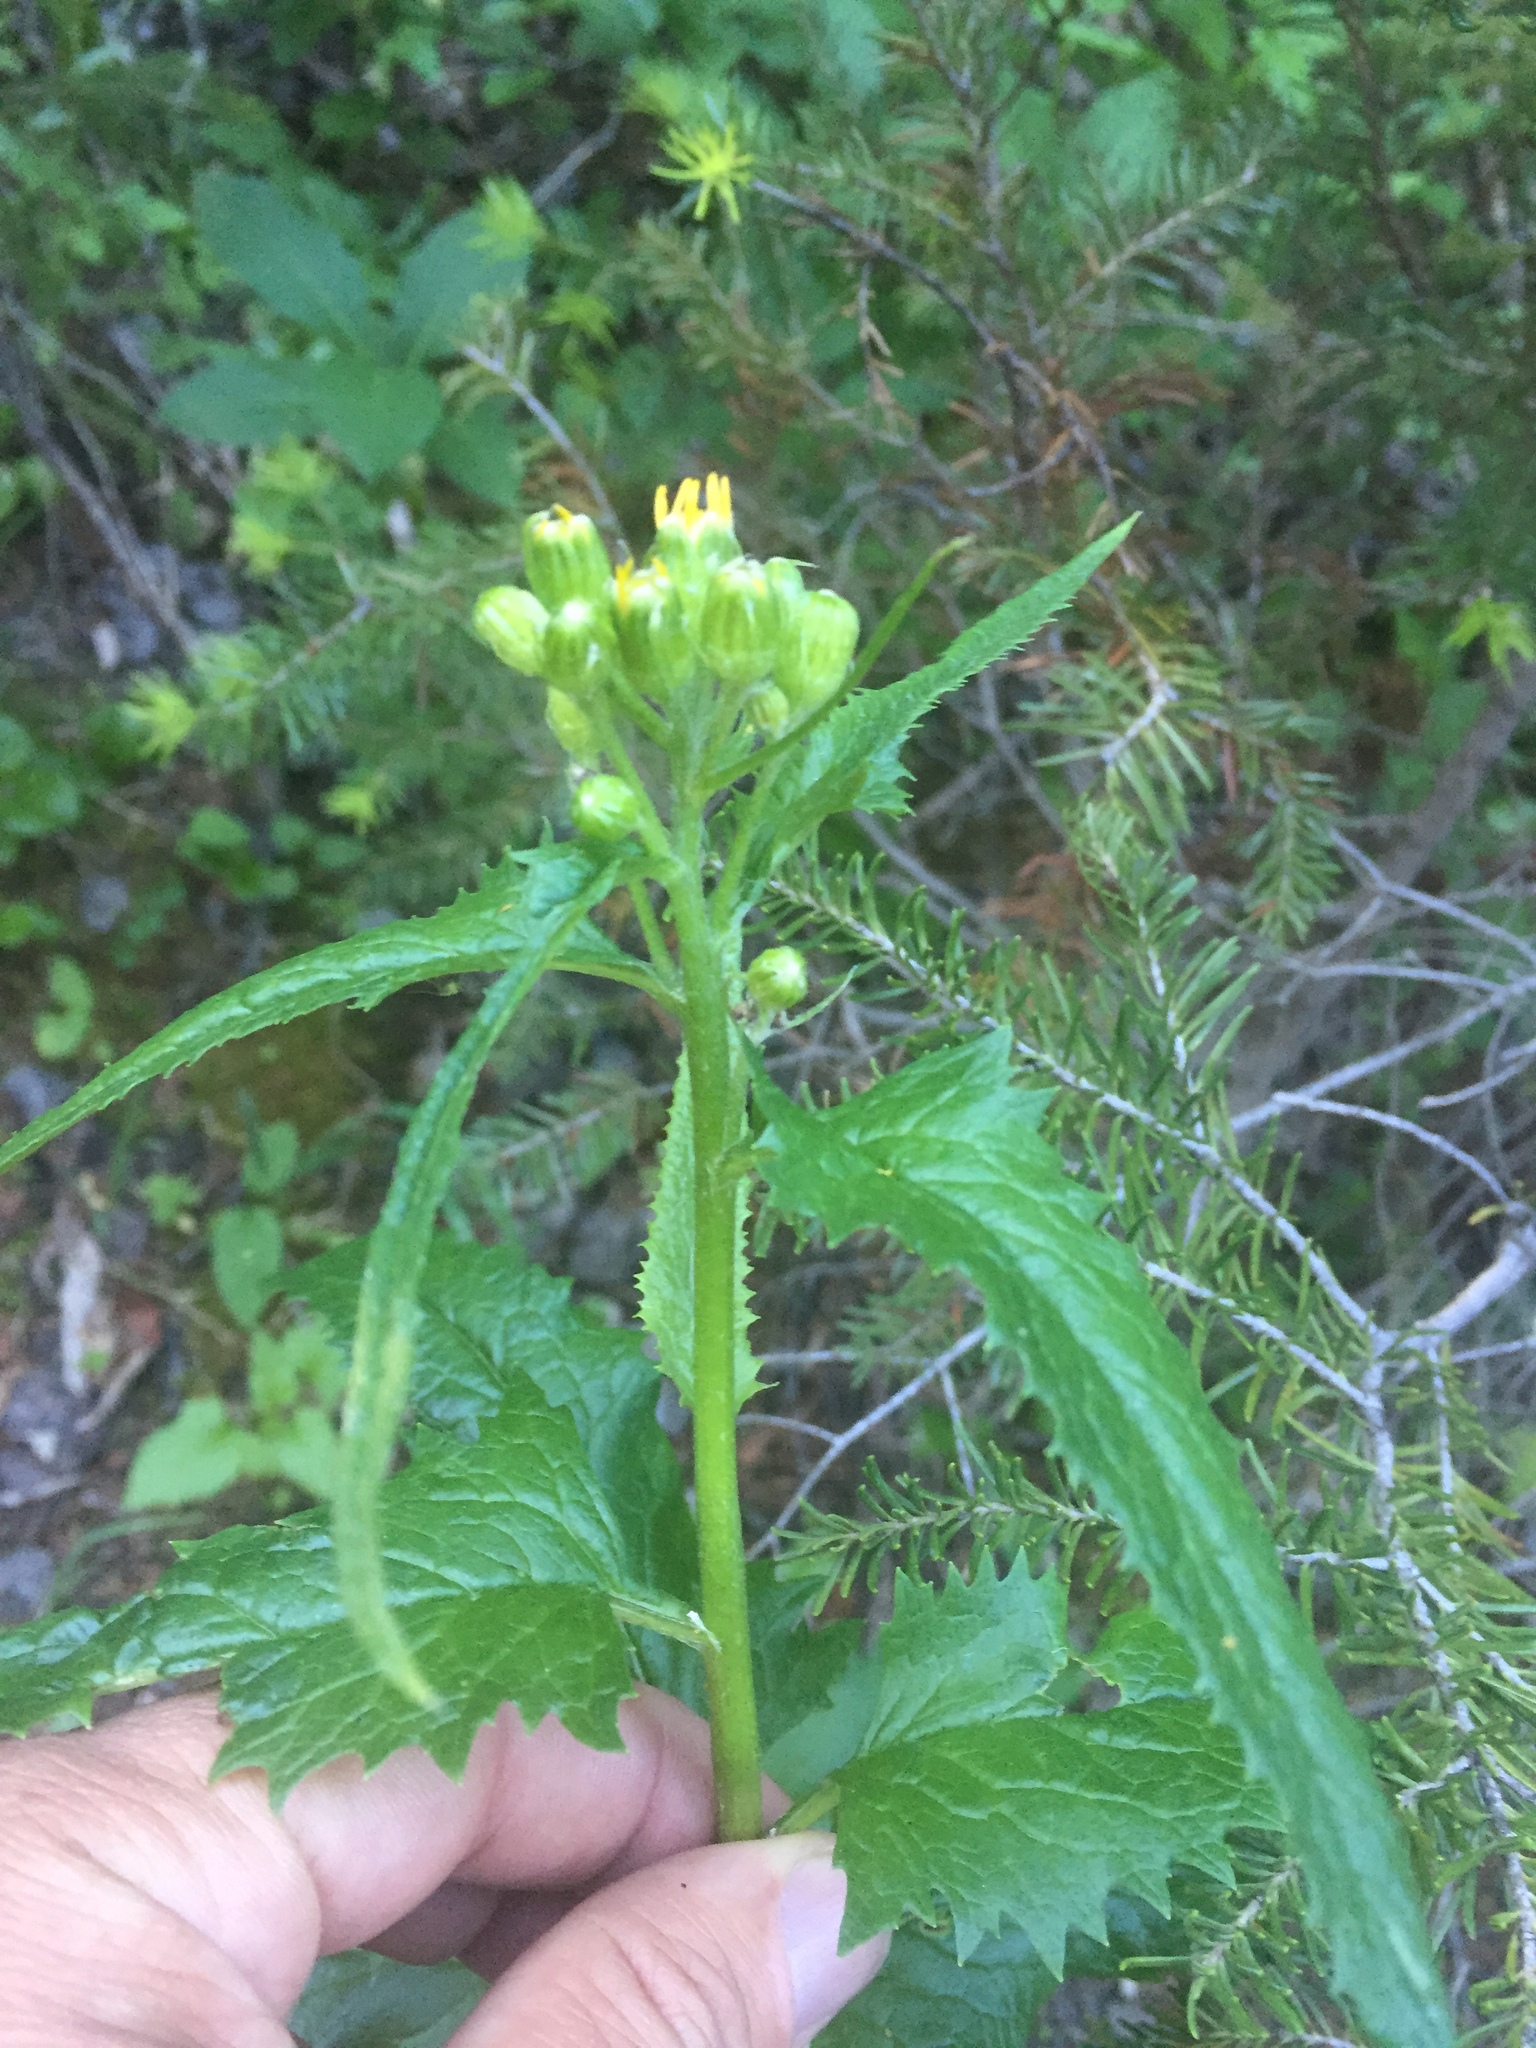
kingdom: Plantae
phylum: Tracheophyta
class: Magnoliopsida
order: Asterales
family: Asteraceae
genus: Senecio
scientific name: Senecio triangularis
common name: Arrowleaf butterweed
